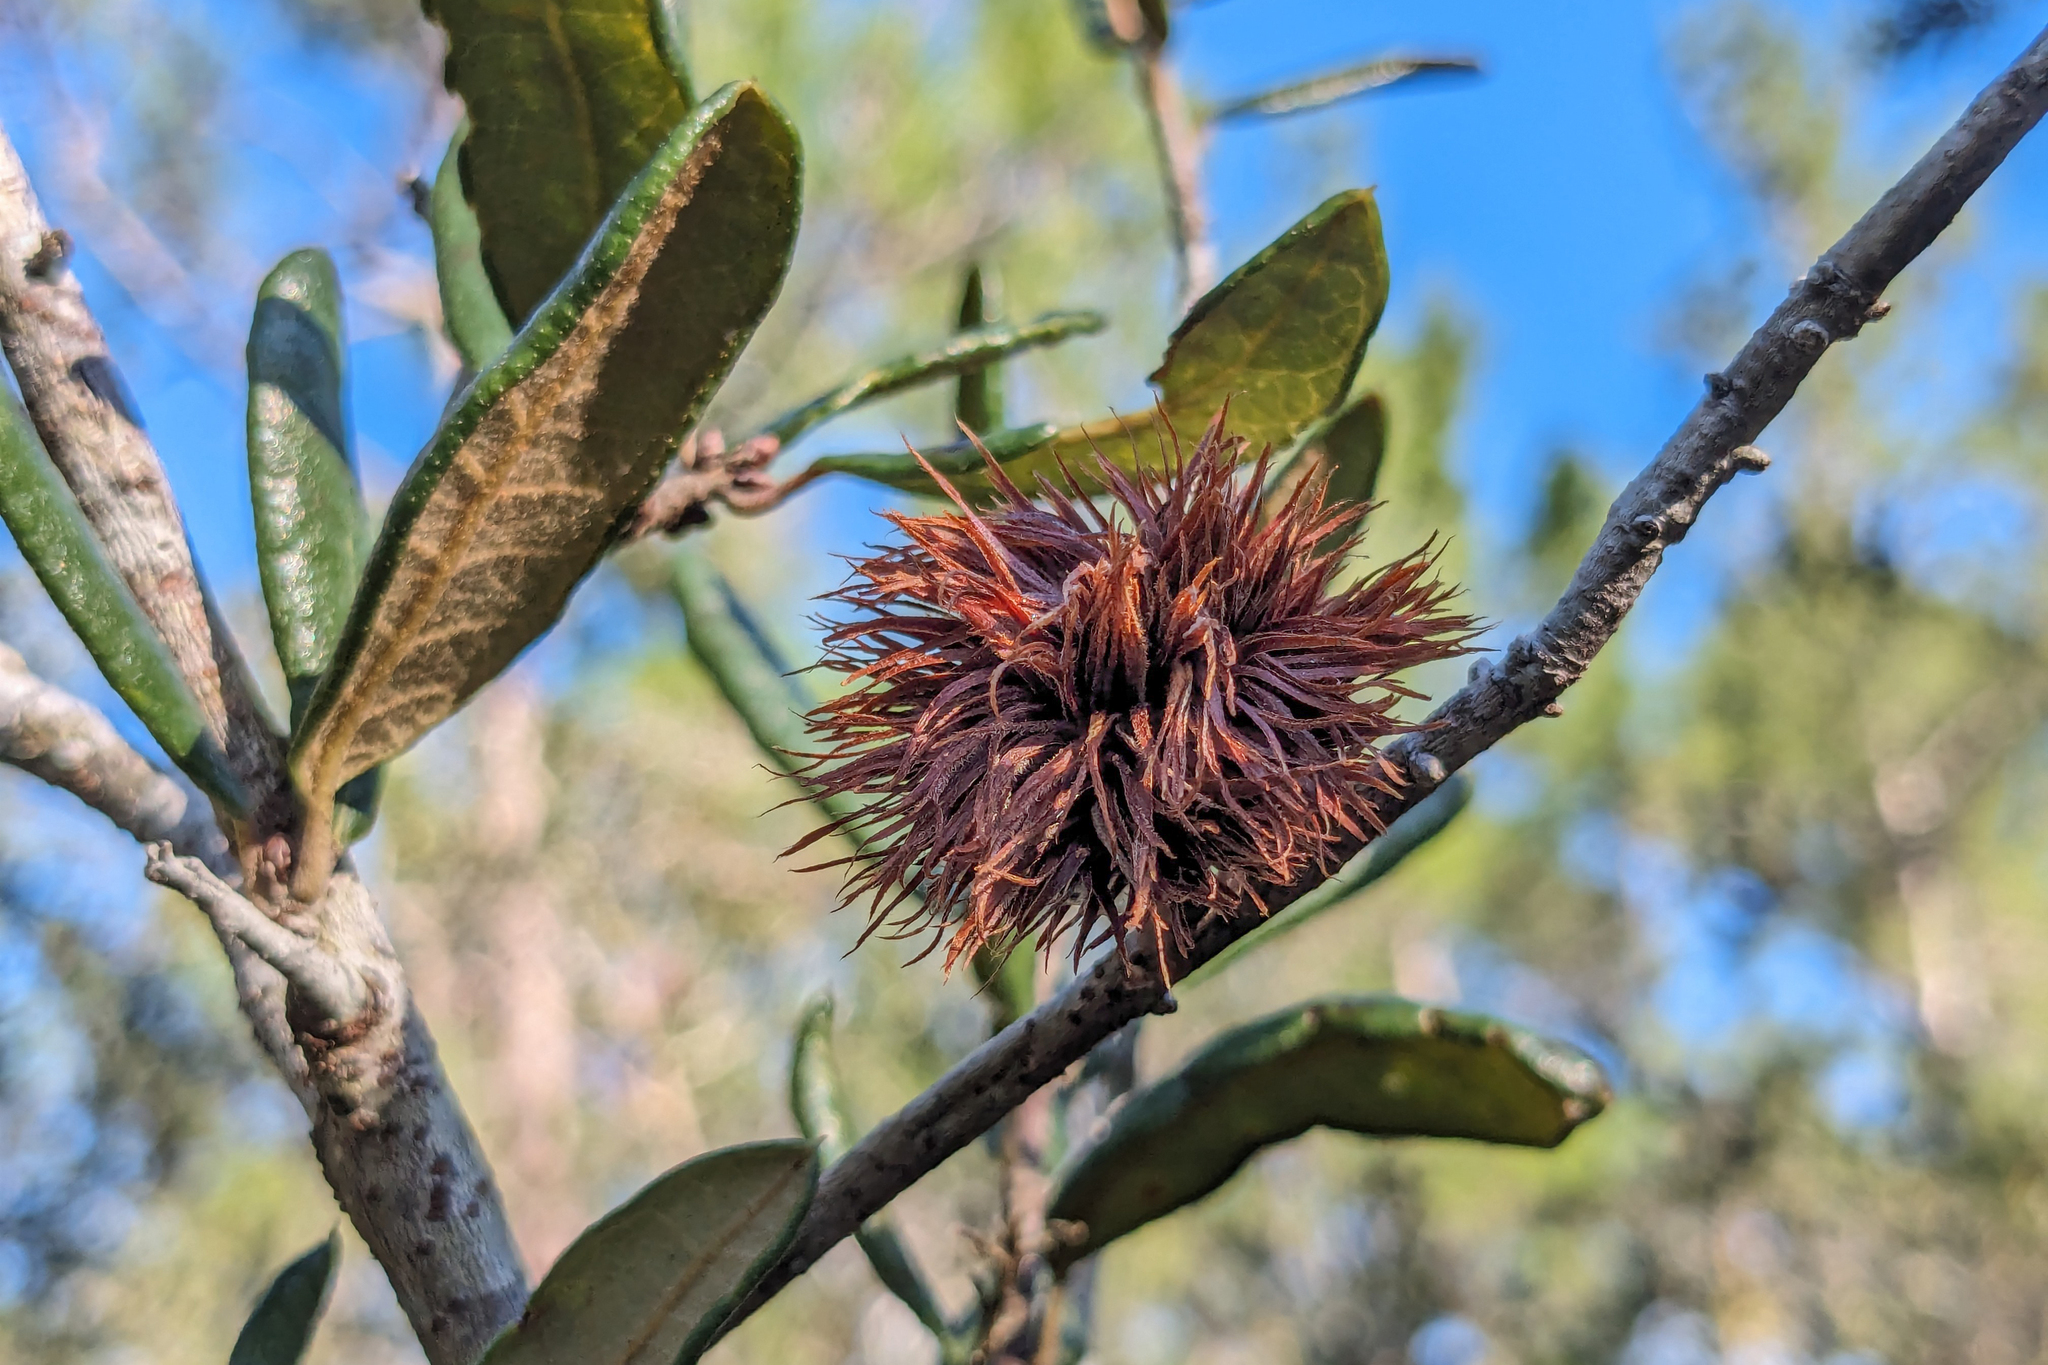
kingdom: Animalia
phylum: Arthropoda
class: Insecta
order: Hymenoptera
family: Cynipidae
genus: Andricus
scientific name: Andricus quercusfoliatus
